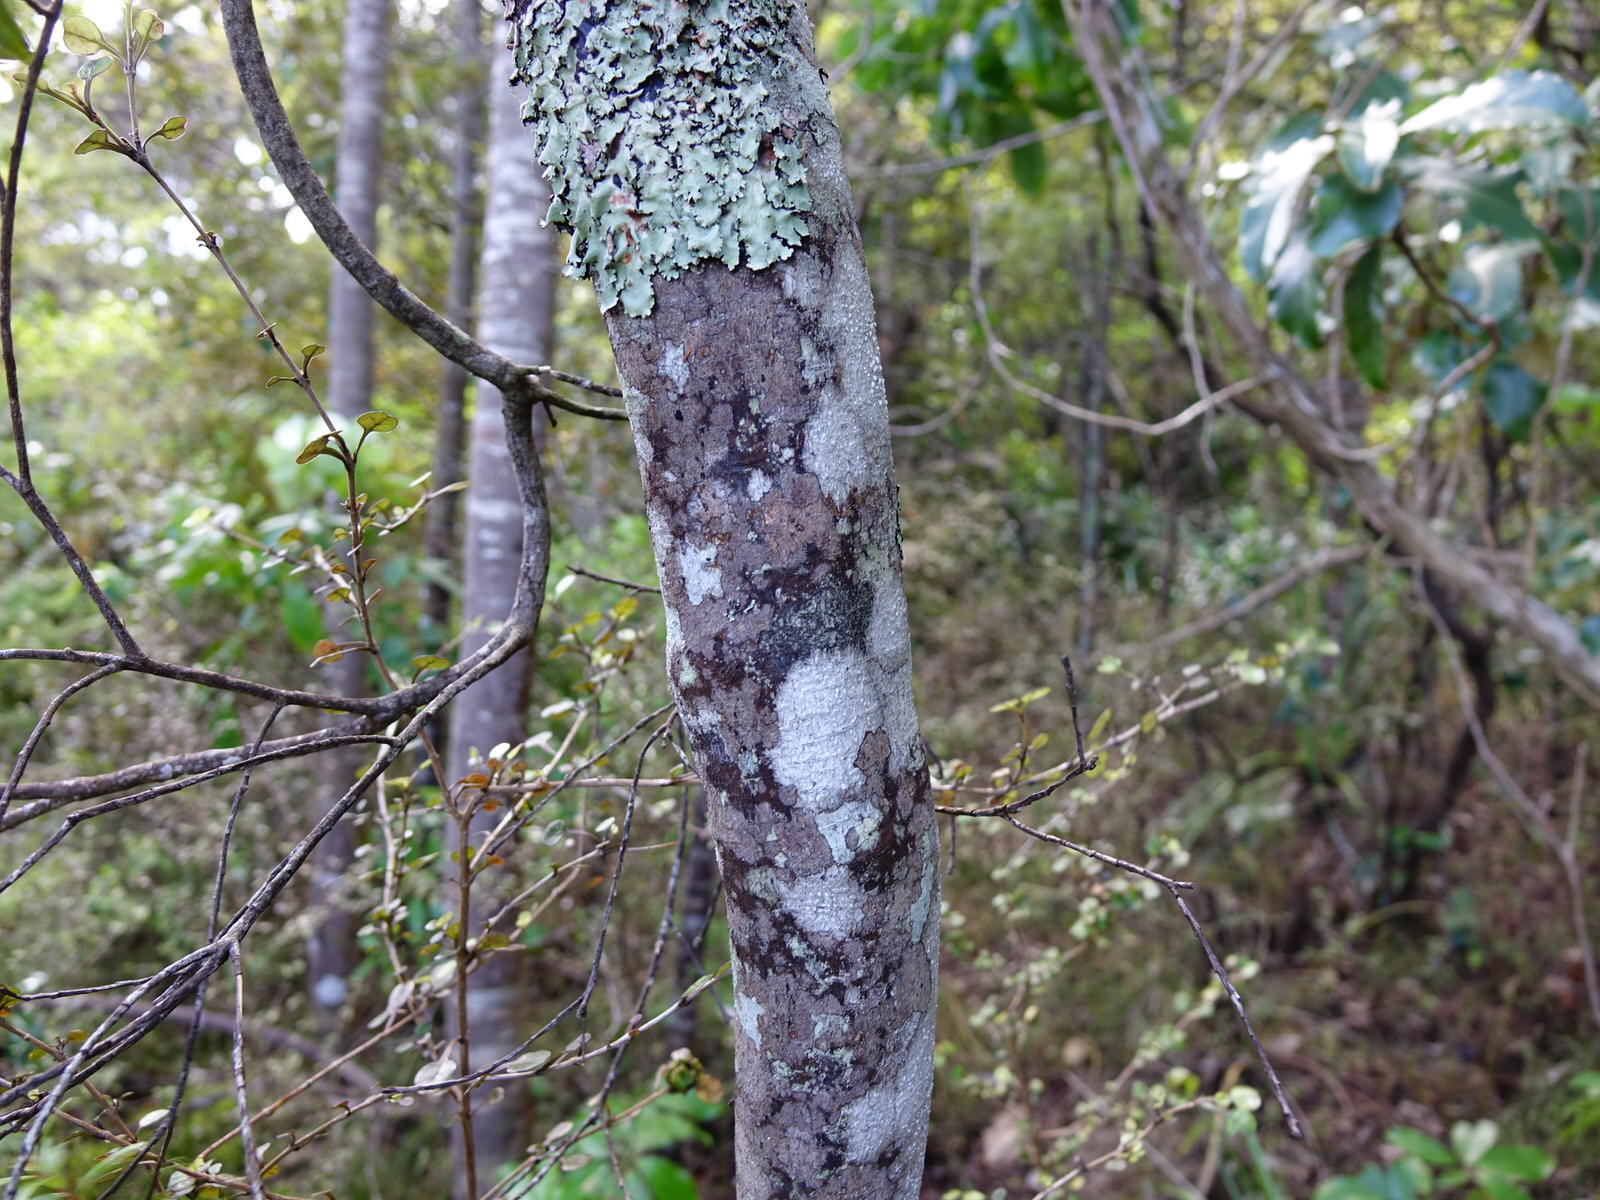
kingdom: Plantae
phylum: Tracheophyta
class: Magnoliopsida
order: Sapindales
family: Rutaceae
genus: Leionema
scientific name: Leionema nudum
